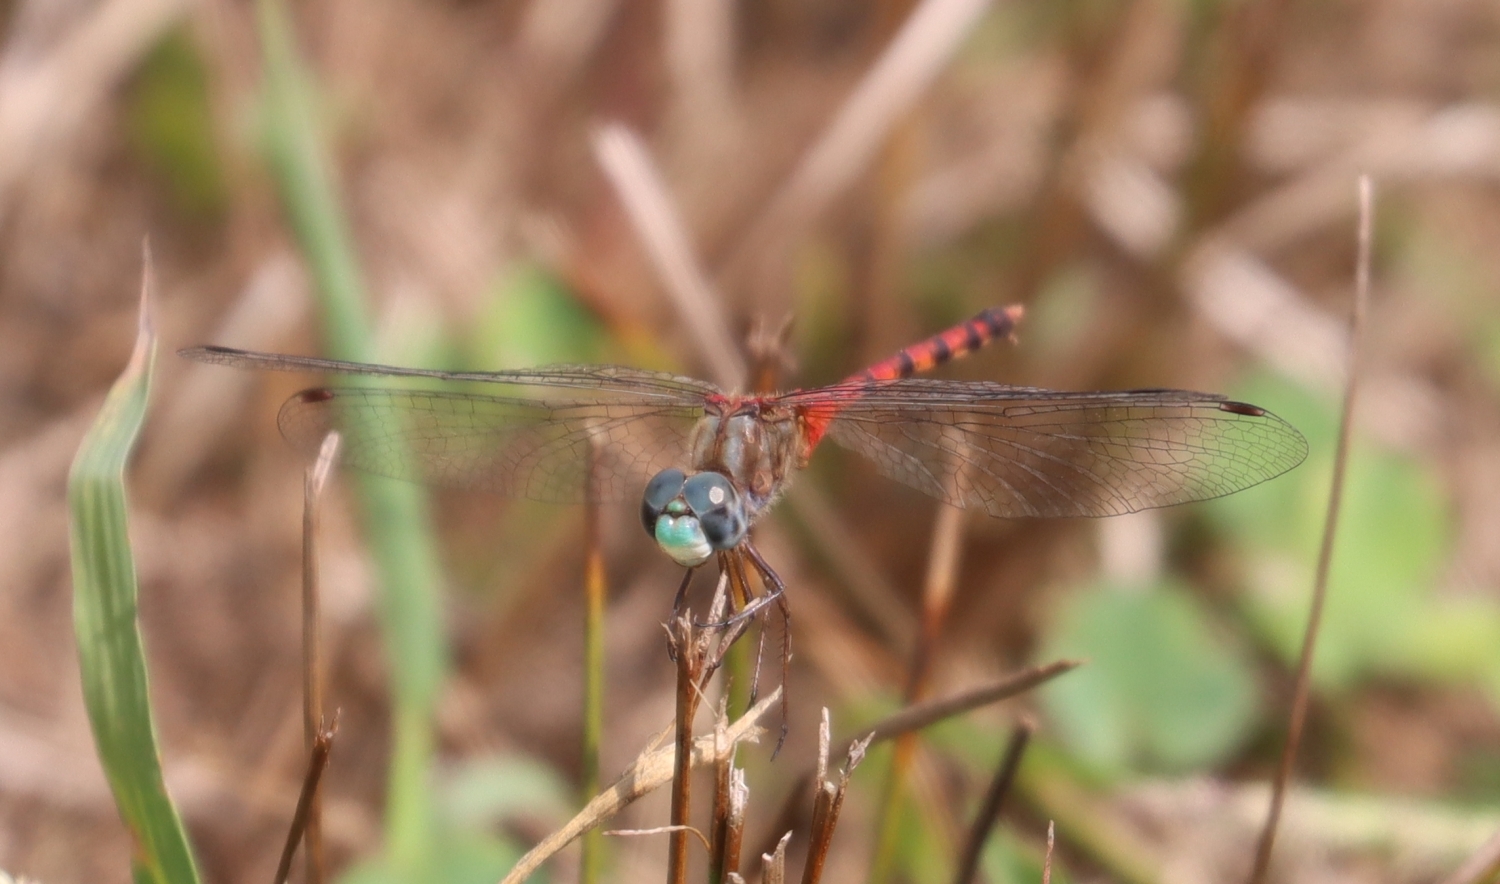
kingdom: Animalia
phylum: Arthropoda
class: Insecta
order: Odonata
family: Libellulidae
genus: Sympetrum
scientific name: Sympetrum ambiguum
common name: Blue-faced meadowhawk
